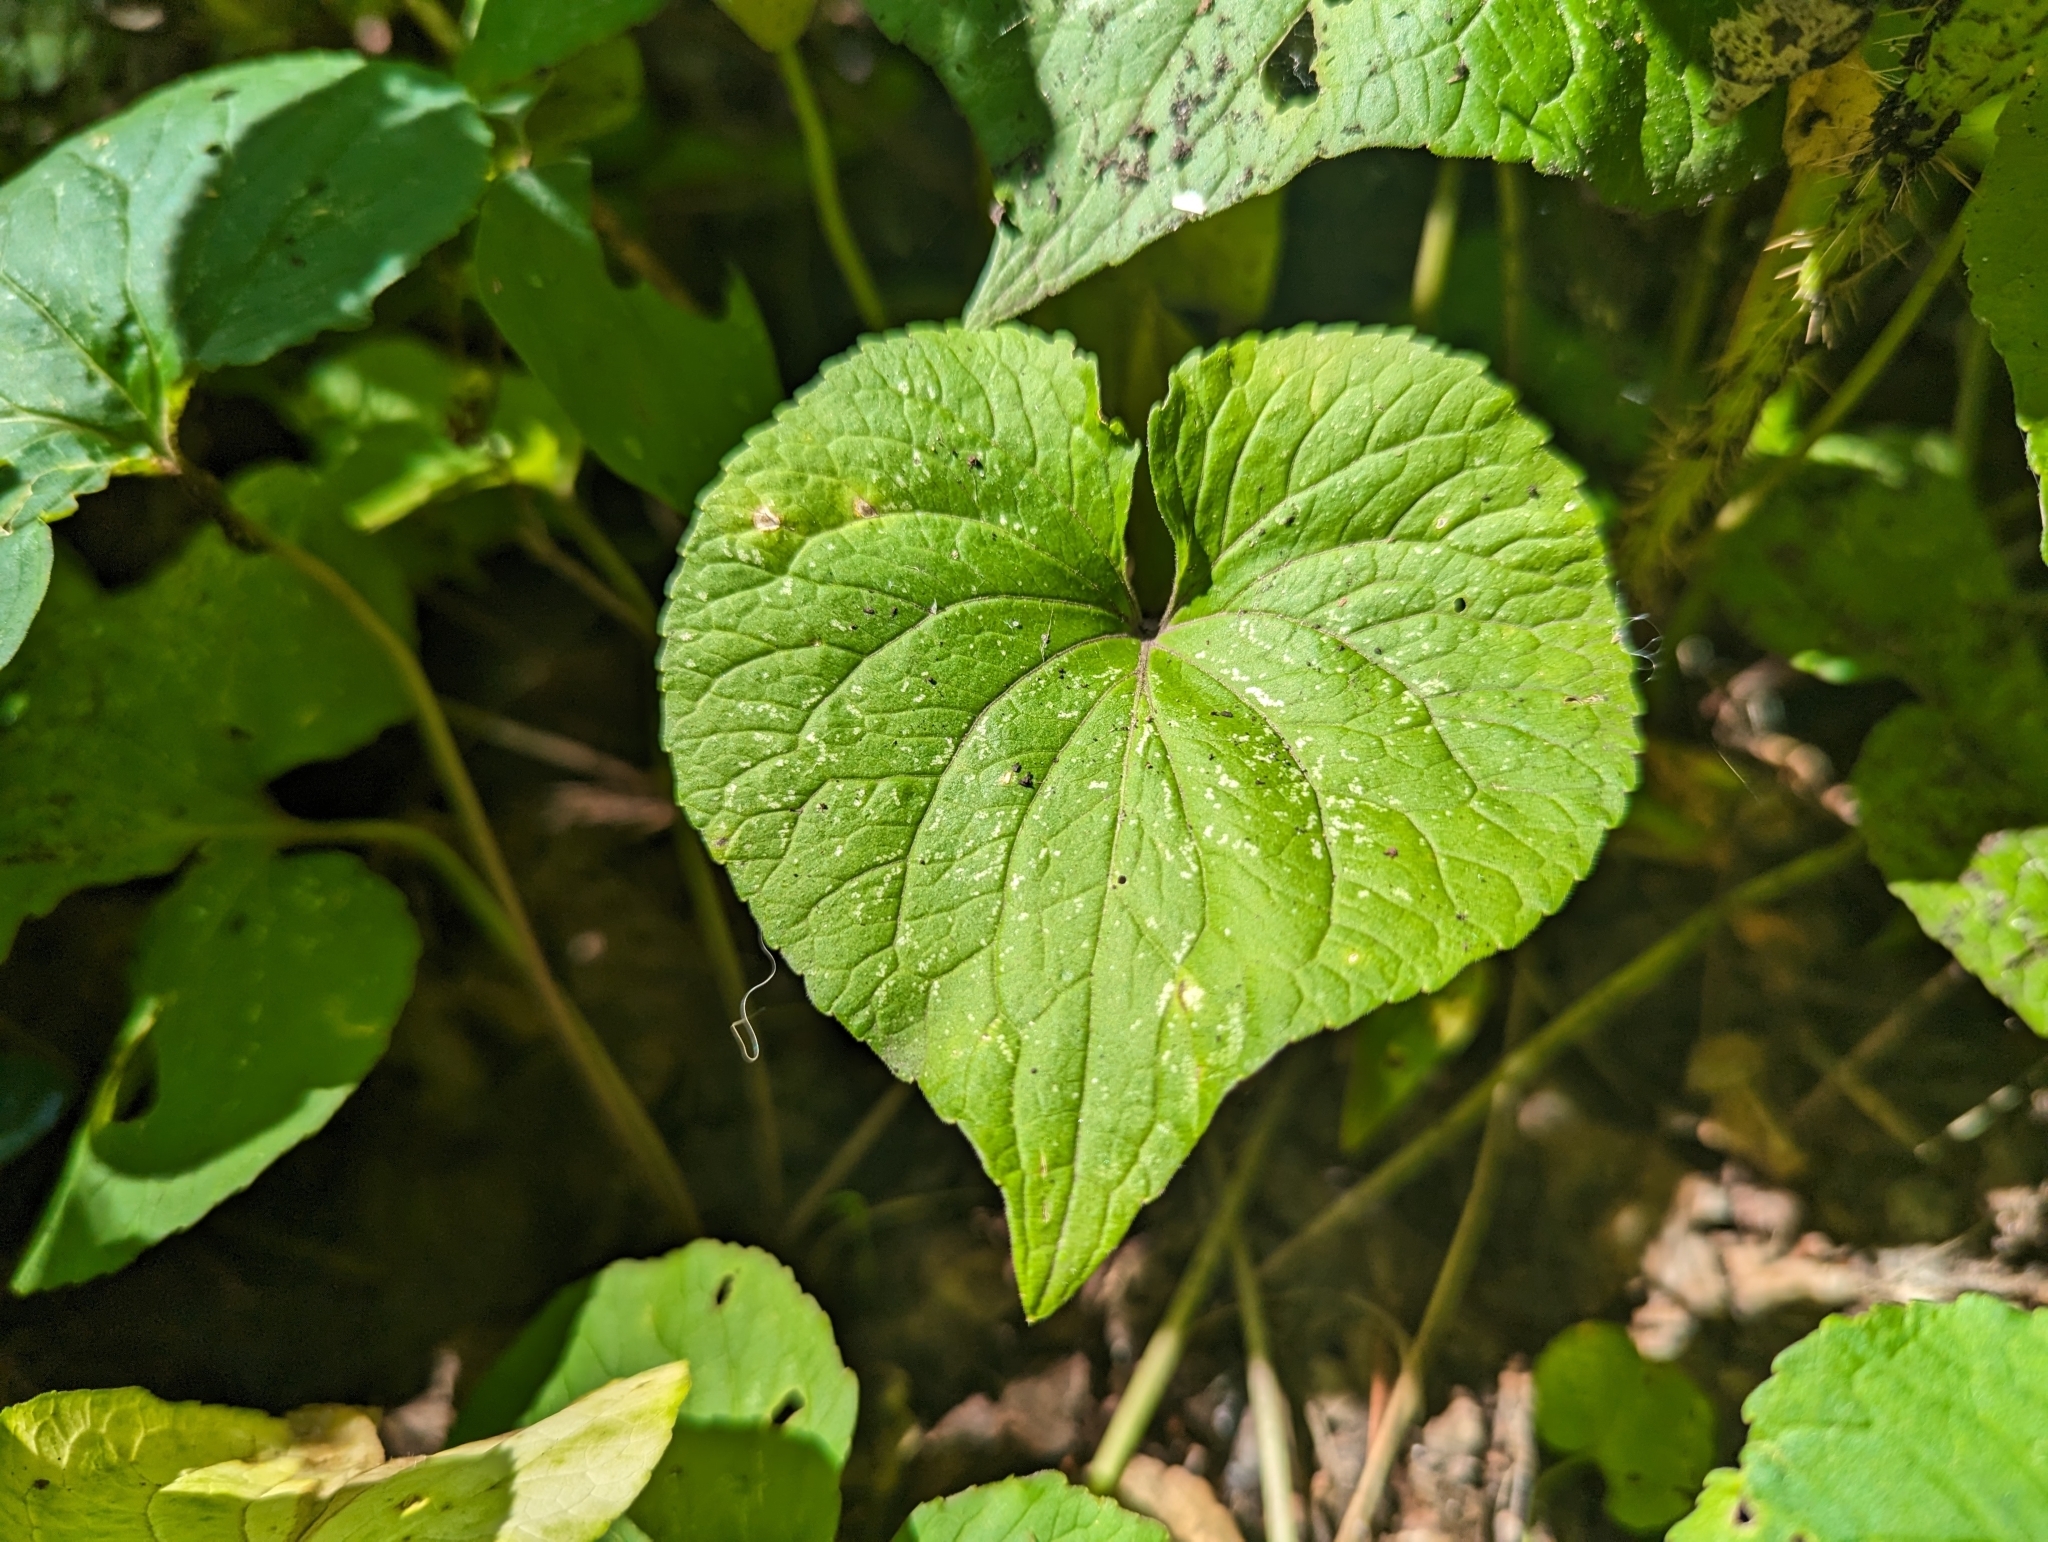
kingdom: Plantae
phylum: Tracheophyta
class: Magnoliopsida
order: Malpighiales
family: Violaceae
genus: Viola
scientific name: Viola canadensis
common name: Canada violet
